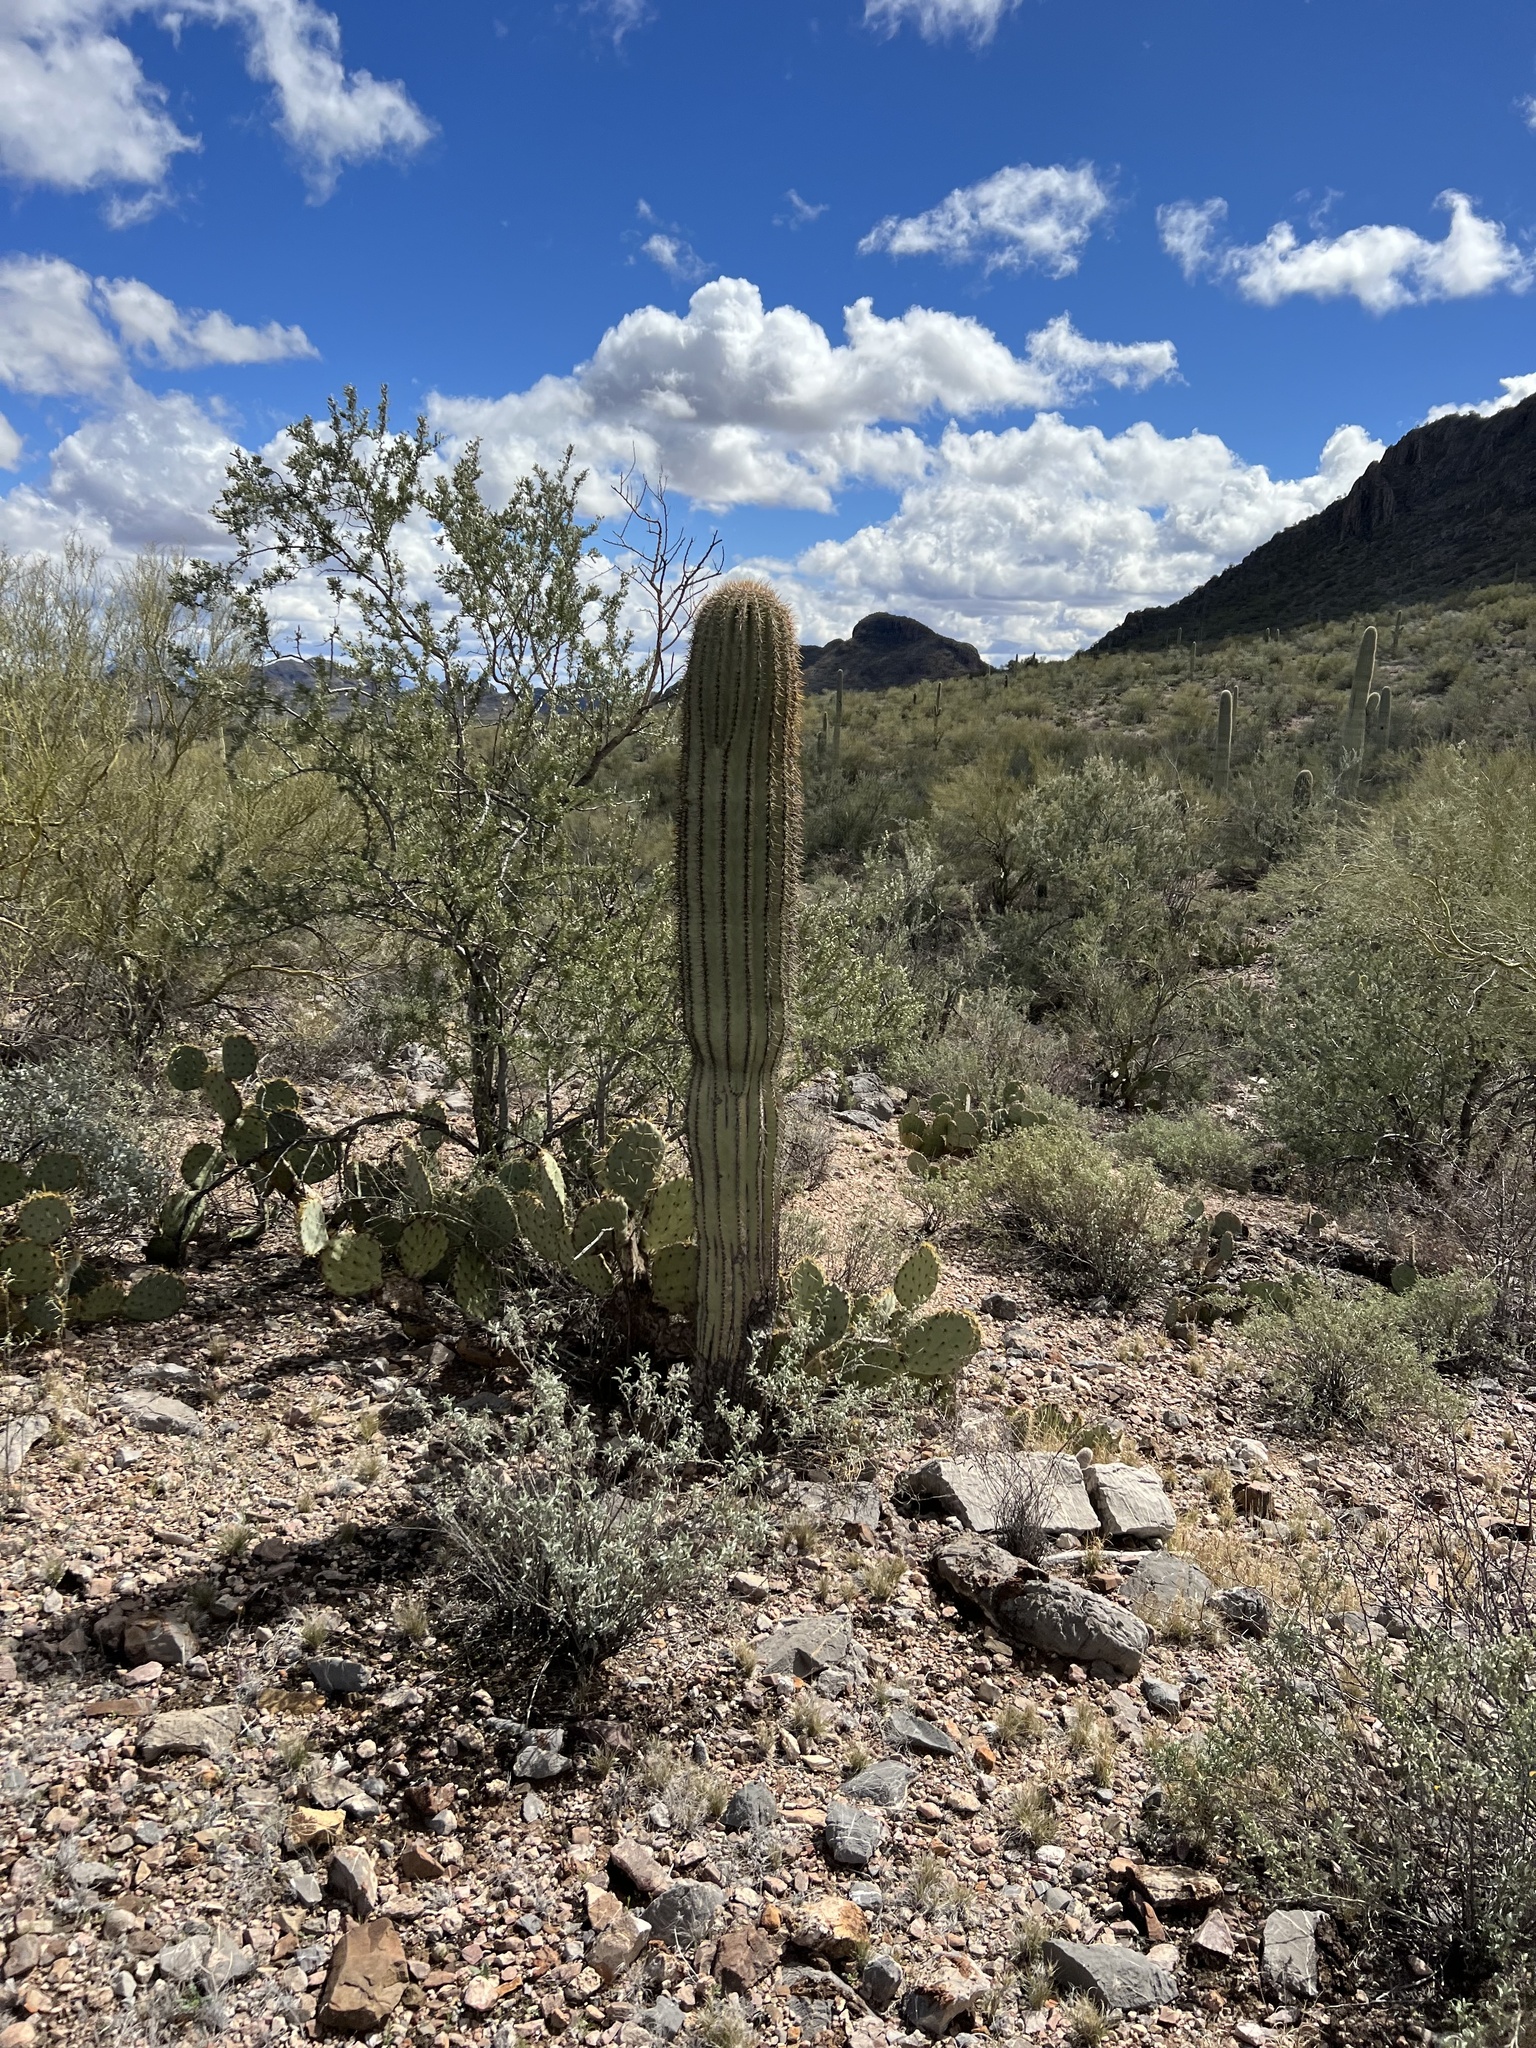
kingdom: Plantae
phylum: Tracheophyta
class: Magnoliopsida
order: Caryophyllales
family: Cactaceae
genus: Carnegiea
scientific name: Carnegiea gigantea
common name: Saguaro
